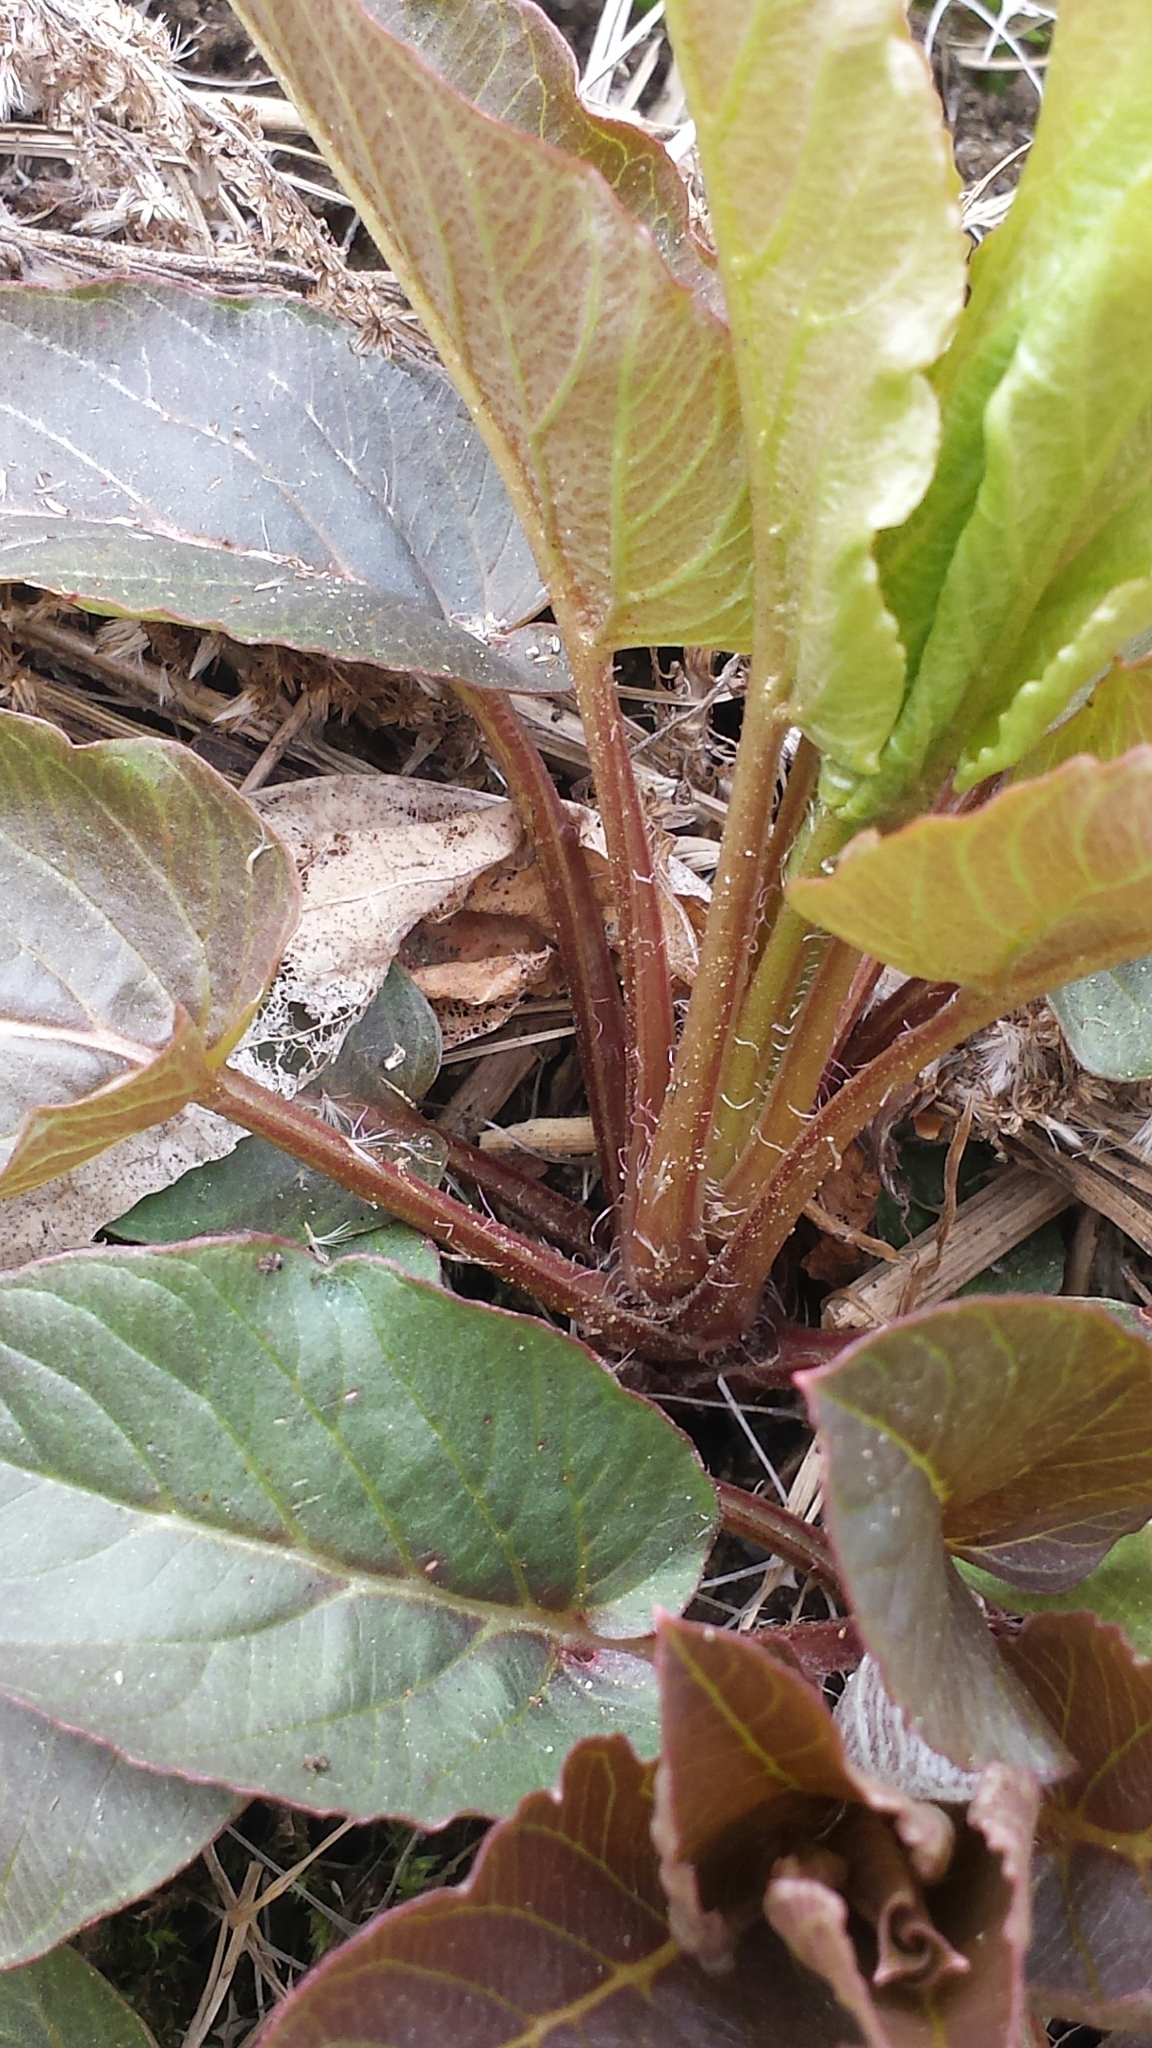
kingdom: Plantae
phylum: Tracheophyta
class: Magnoliopsida
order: Ericales
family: Primulaceae
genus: Lysimachia
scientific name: Lysimachia ciliata
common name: Fringed loosestrife
